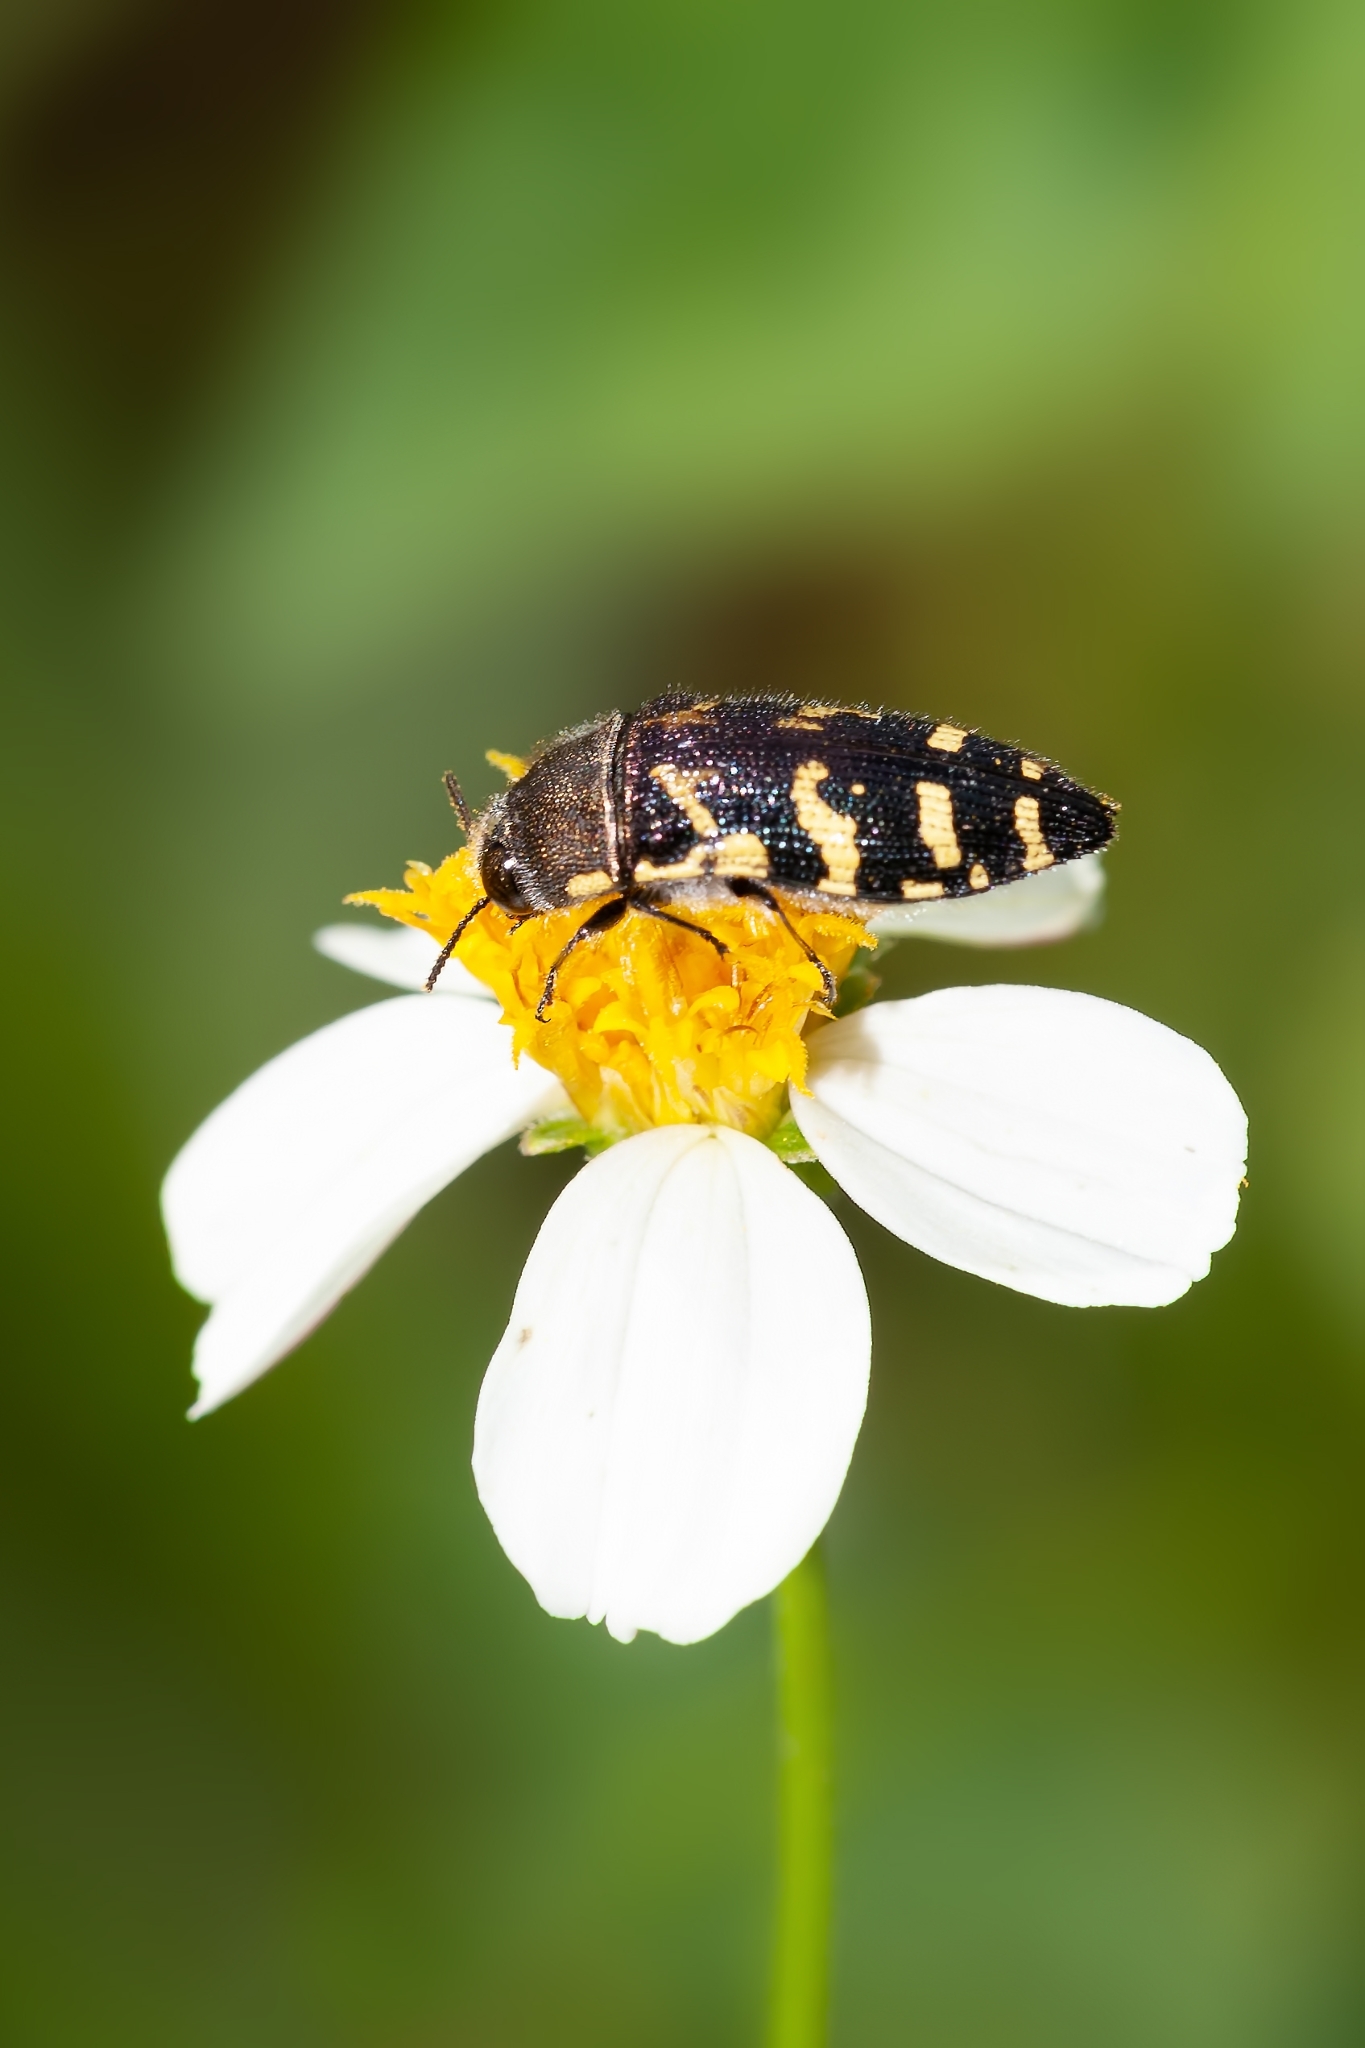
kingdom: Animalia
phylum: Arthropoda
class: Insecta
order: Coleoptera
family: Buprestidae
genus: Acmaeodera
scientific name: Acmaeodera pulchella
